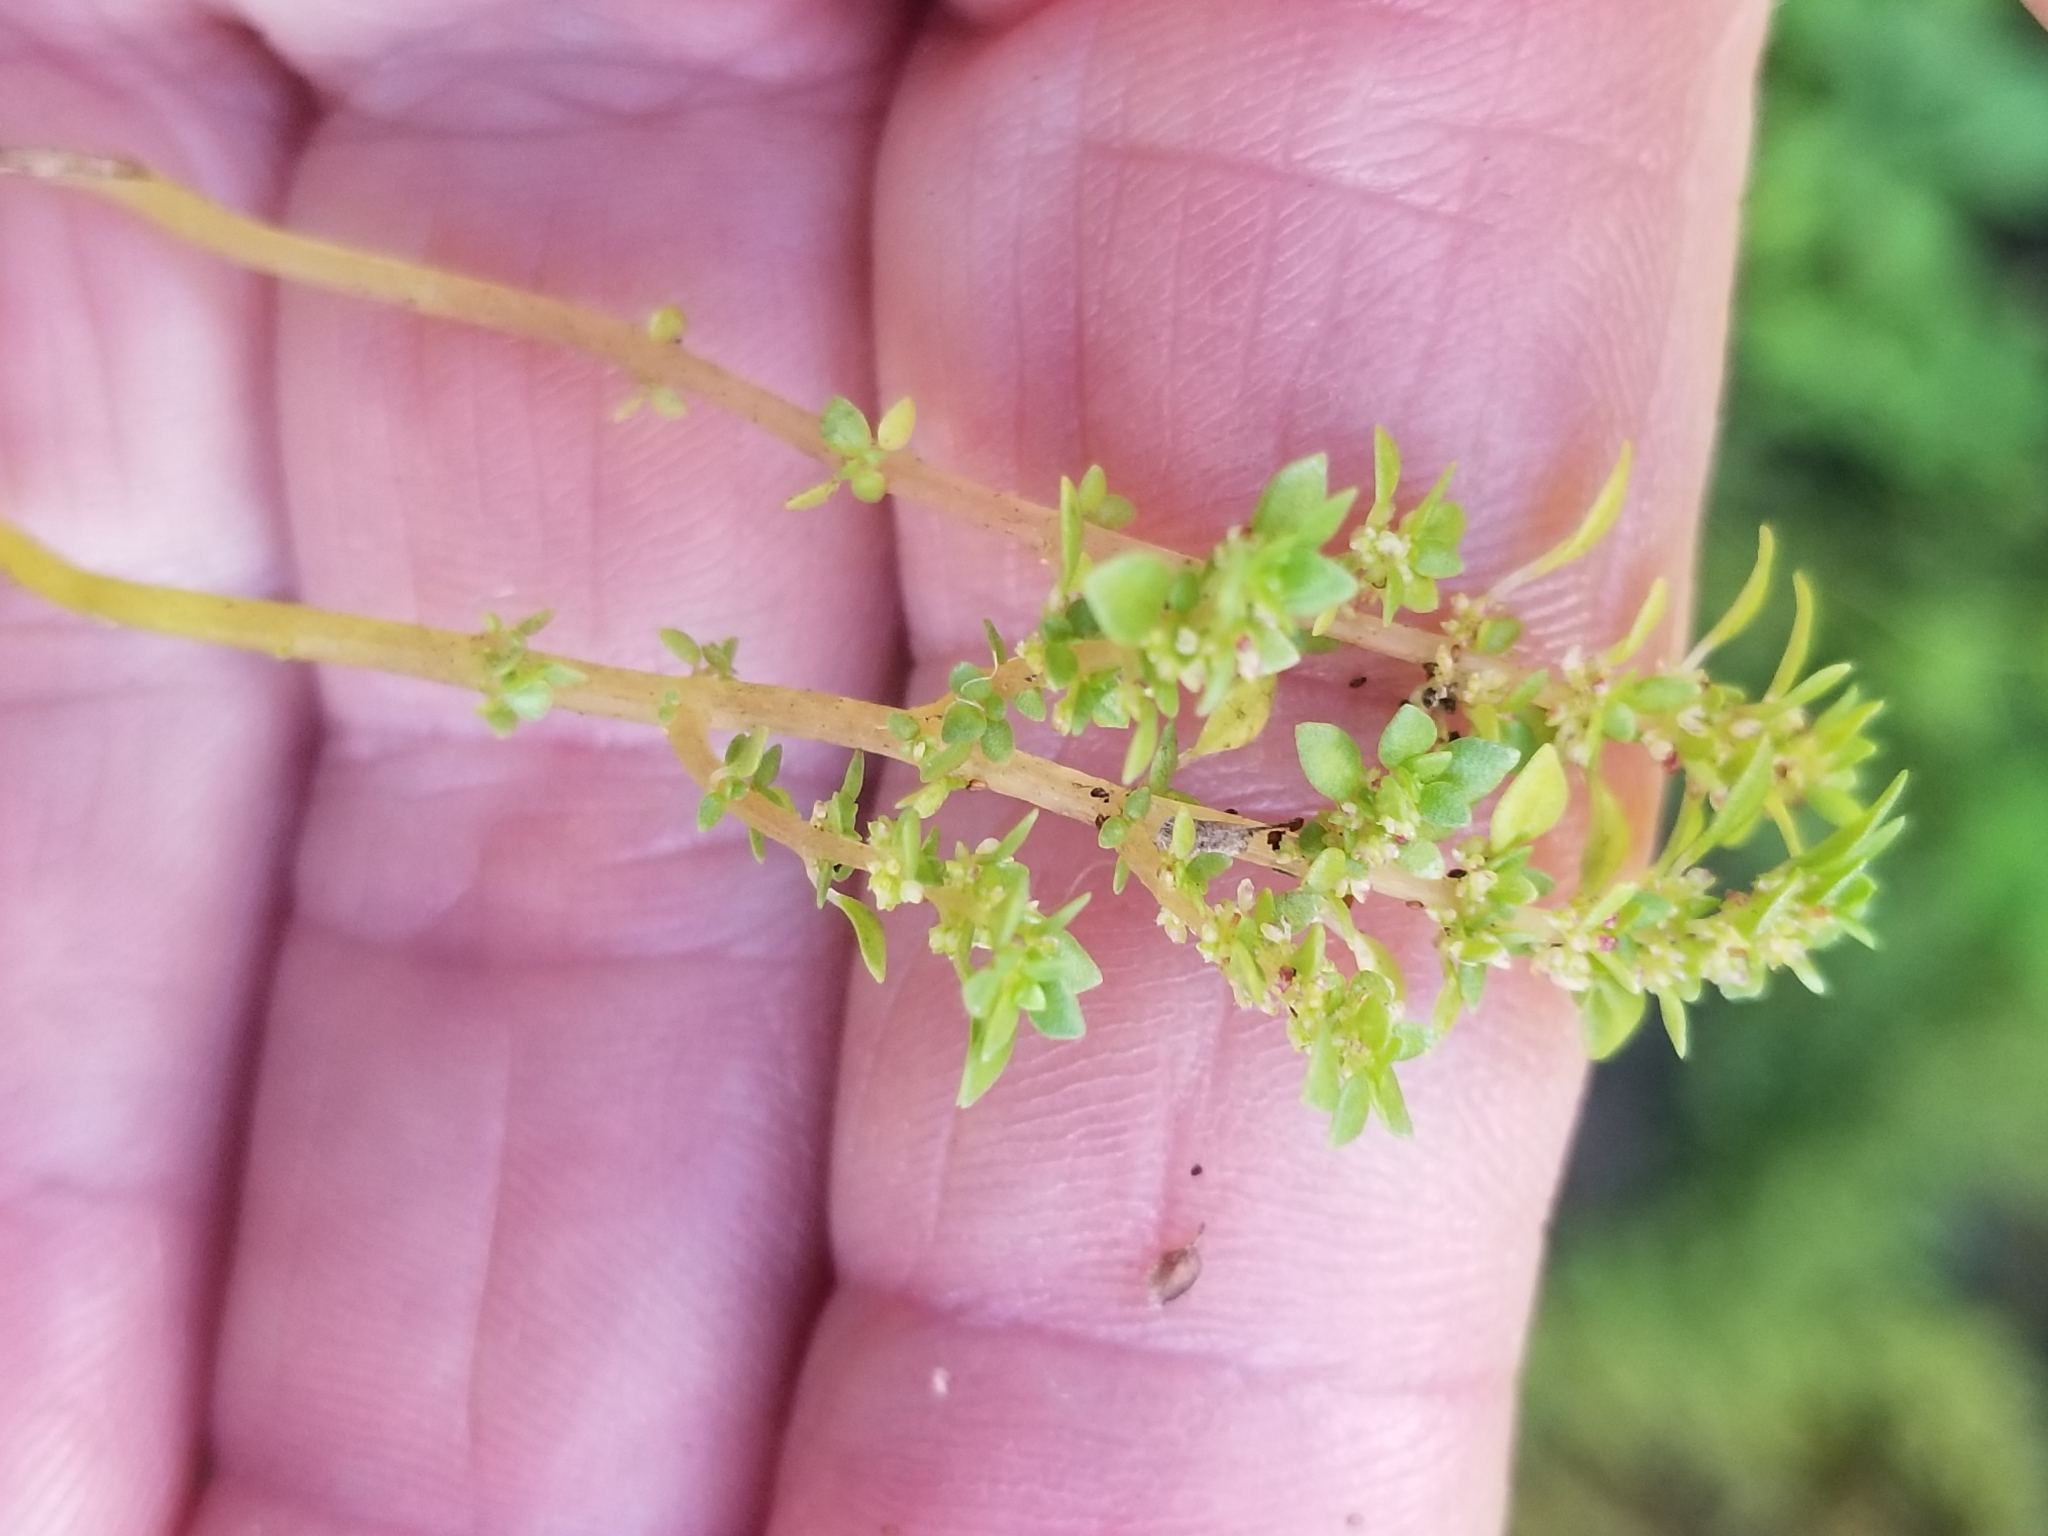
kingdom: Plantae
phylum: Tracheophyta
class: Magnoliopsida
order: Rosales
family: Urticaceae
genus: Pilea
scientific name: Pilea microphylla
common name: Artillery-plant
